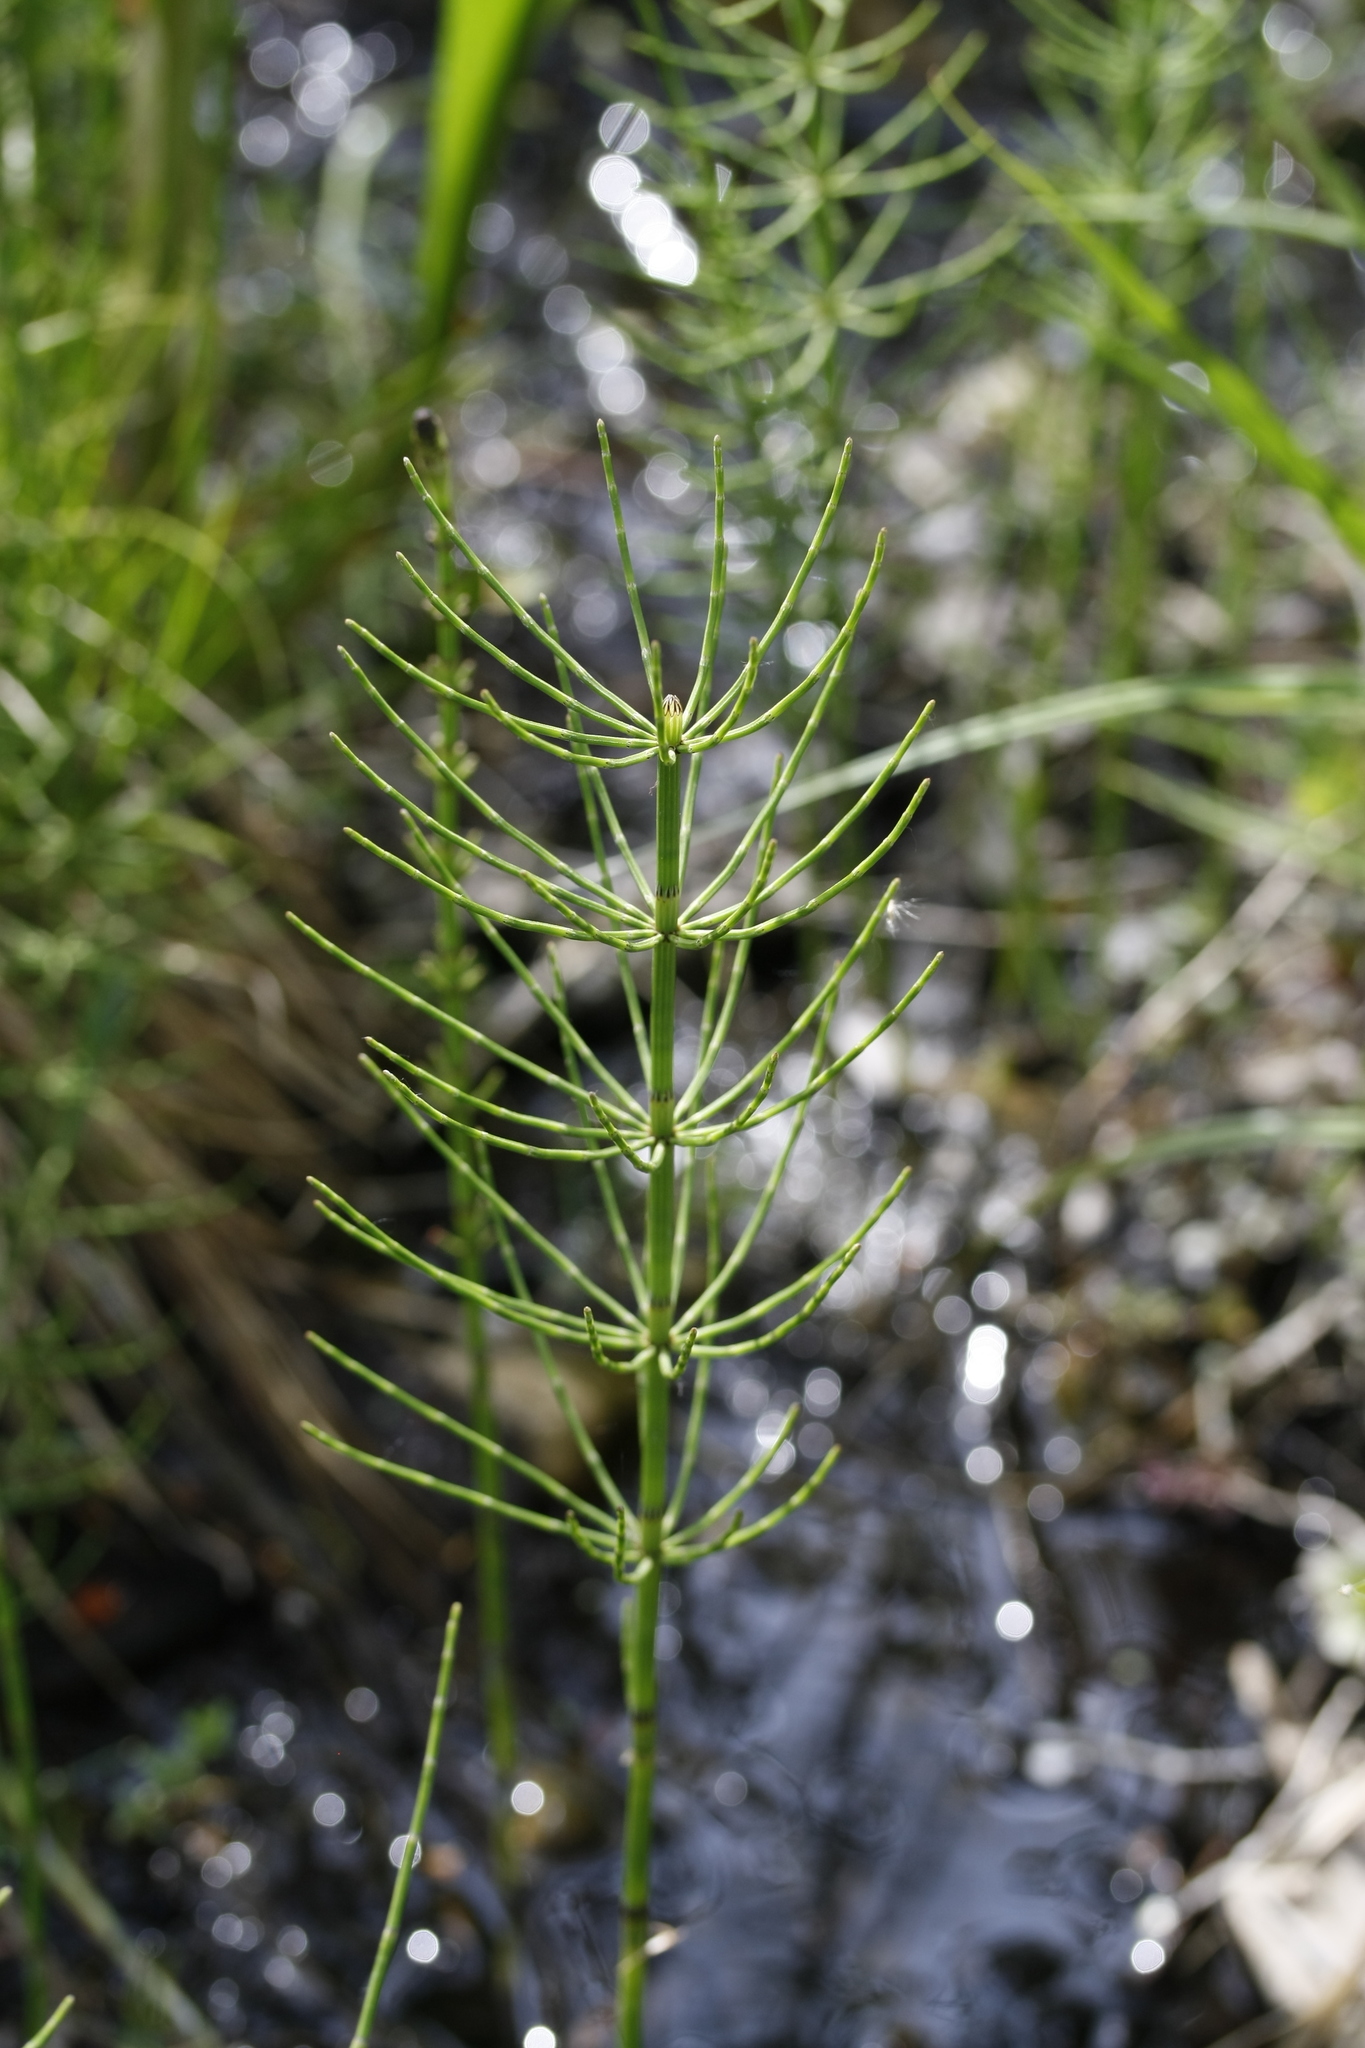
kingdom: Plantae
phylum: Tracheophyta
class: Polypodiopsida
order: Equisetales
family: Equisetaceae
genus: Equisetum
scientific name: Equisetum fluviatile
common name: Water horsetail
